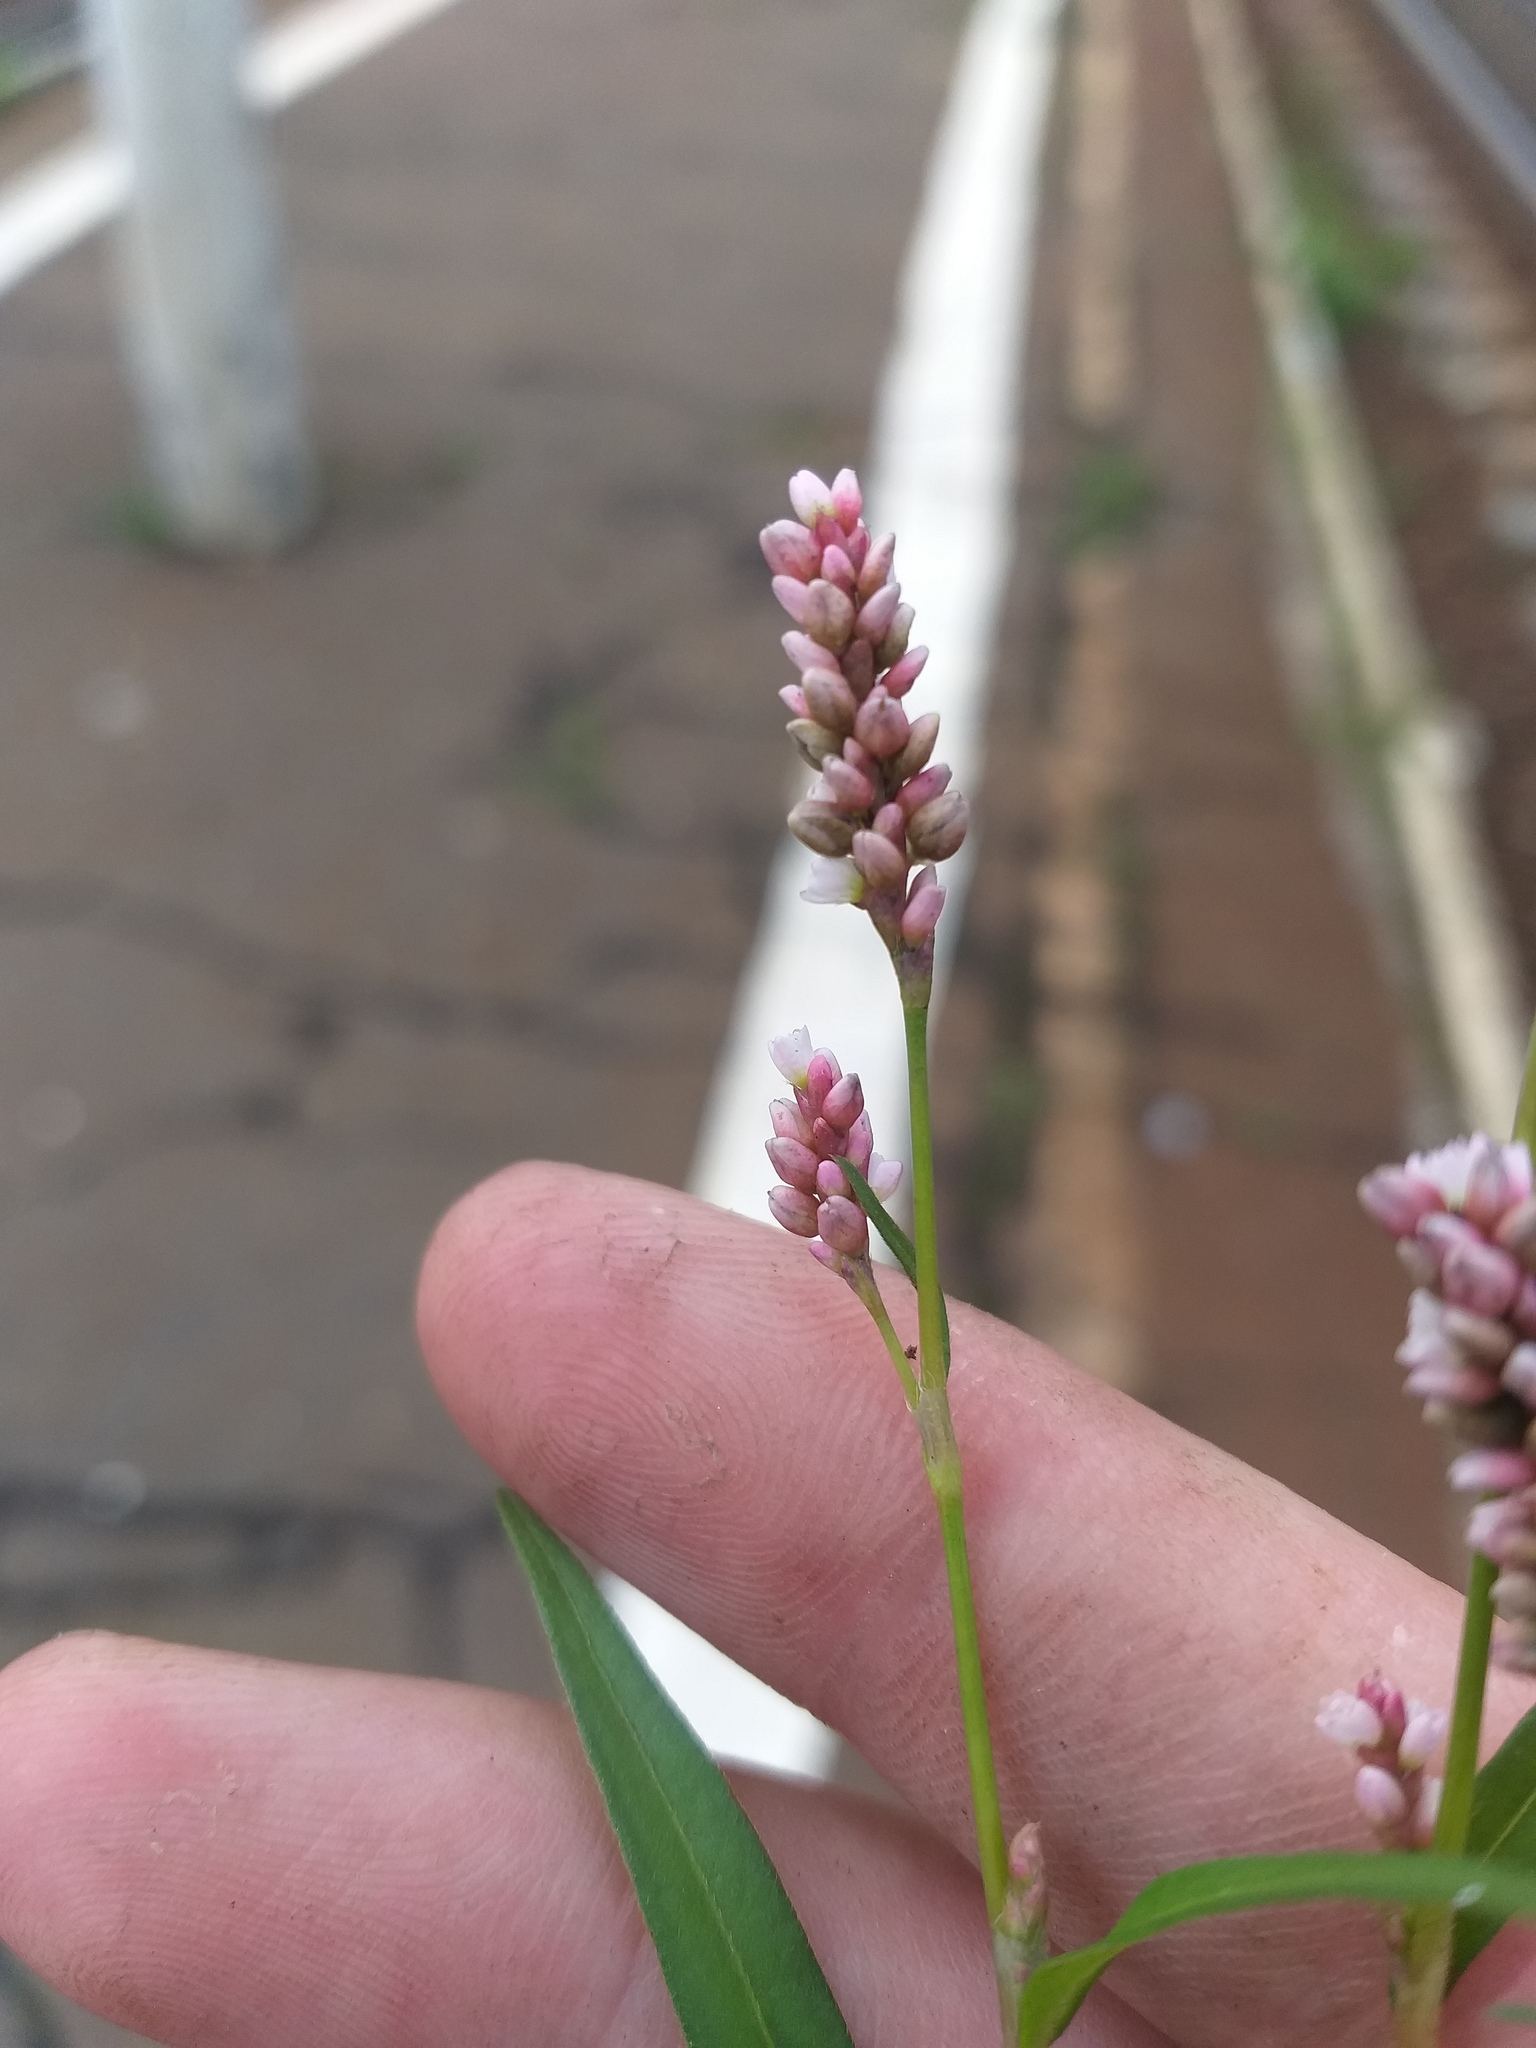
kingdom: Plantae
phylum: Tracheophyta
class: Magnoliopsida
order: Caryophyllales
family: Polygonaceae
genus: Persicaria
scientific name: Persicaria maculosa
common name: Redshank
